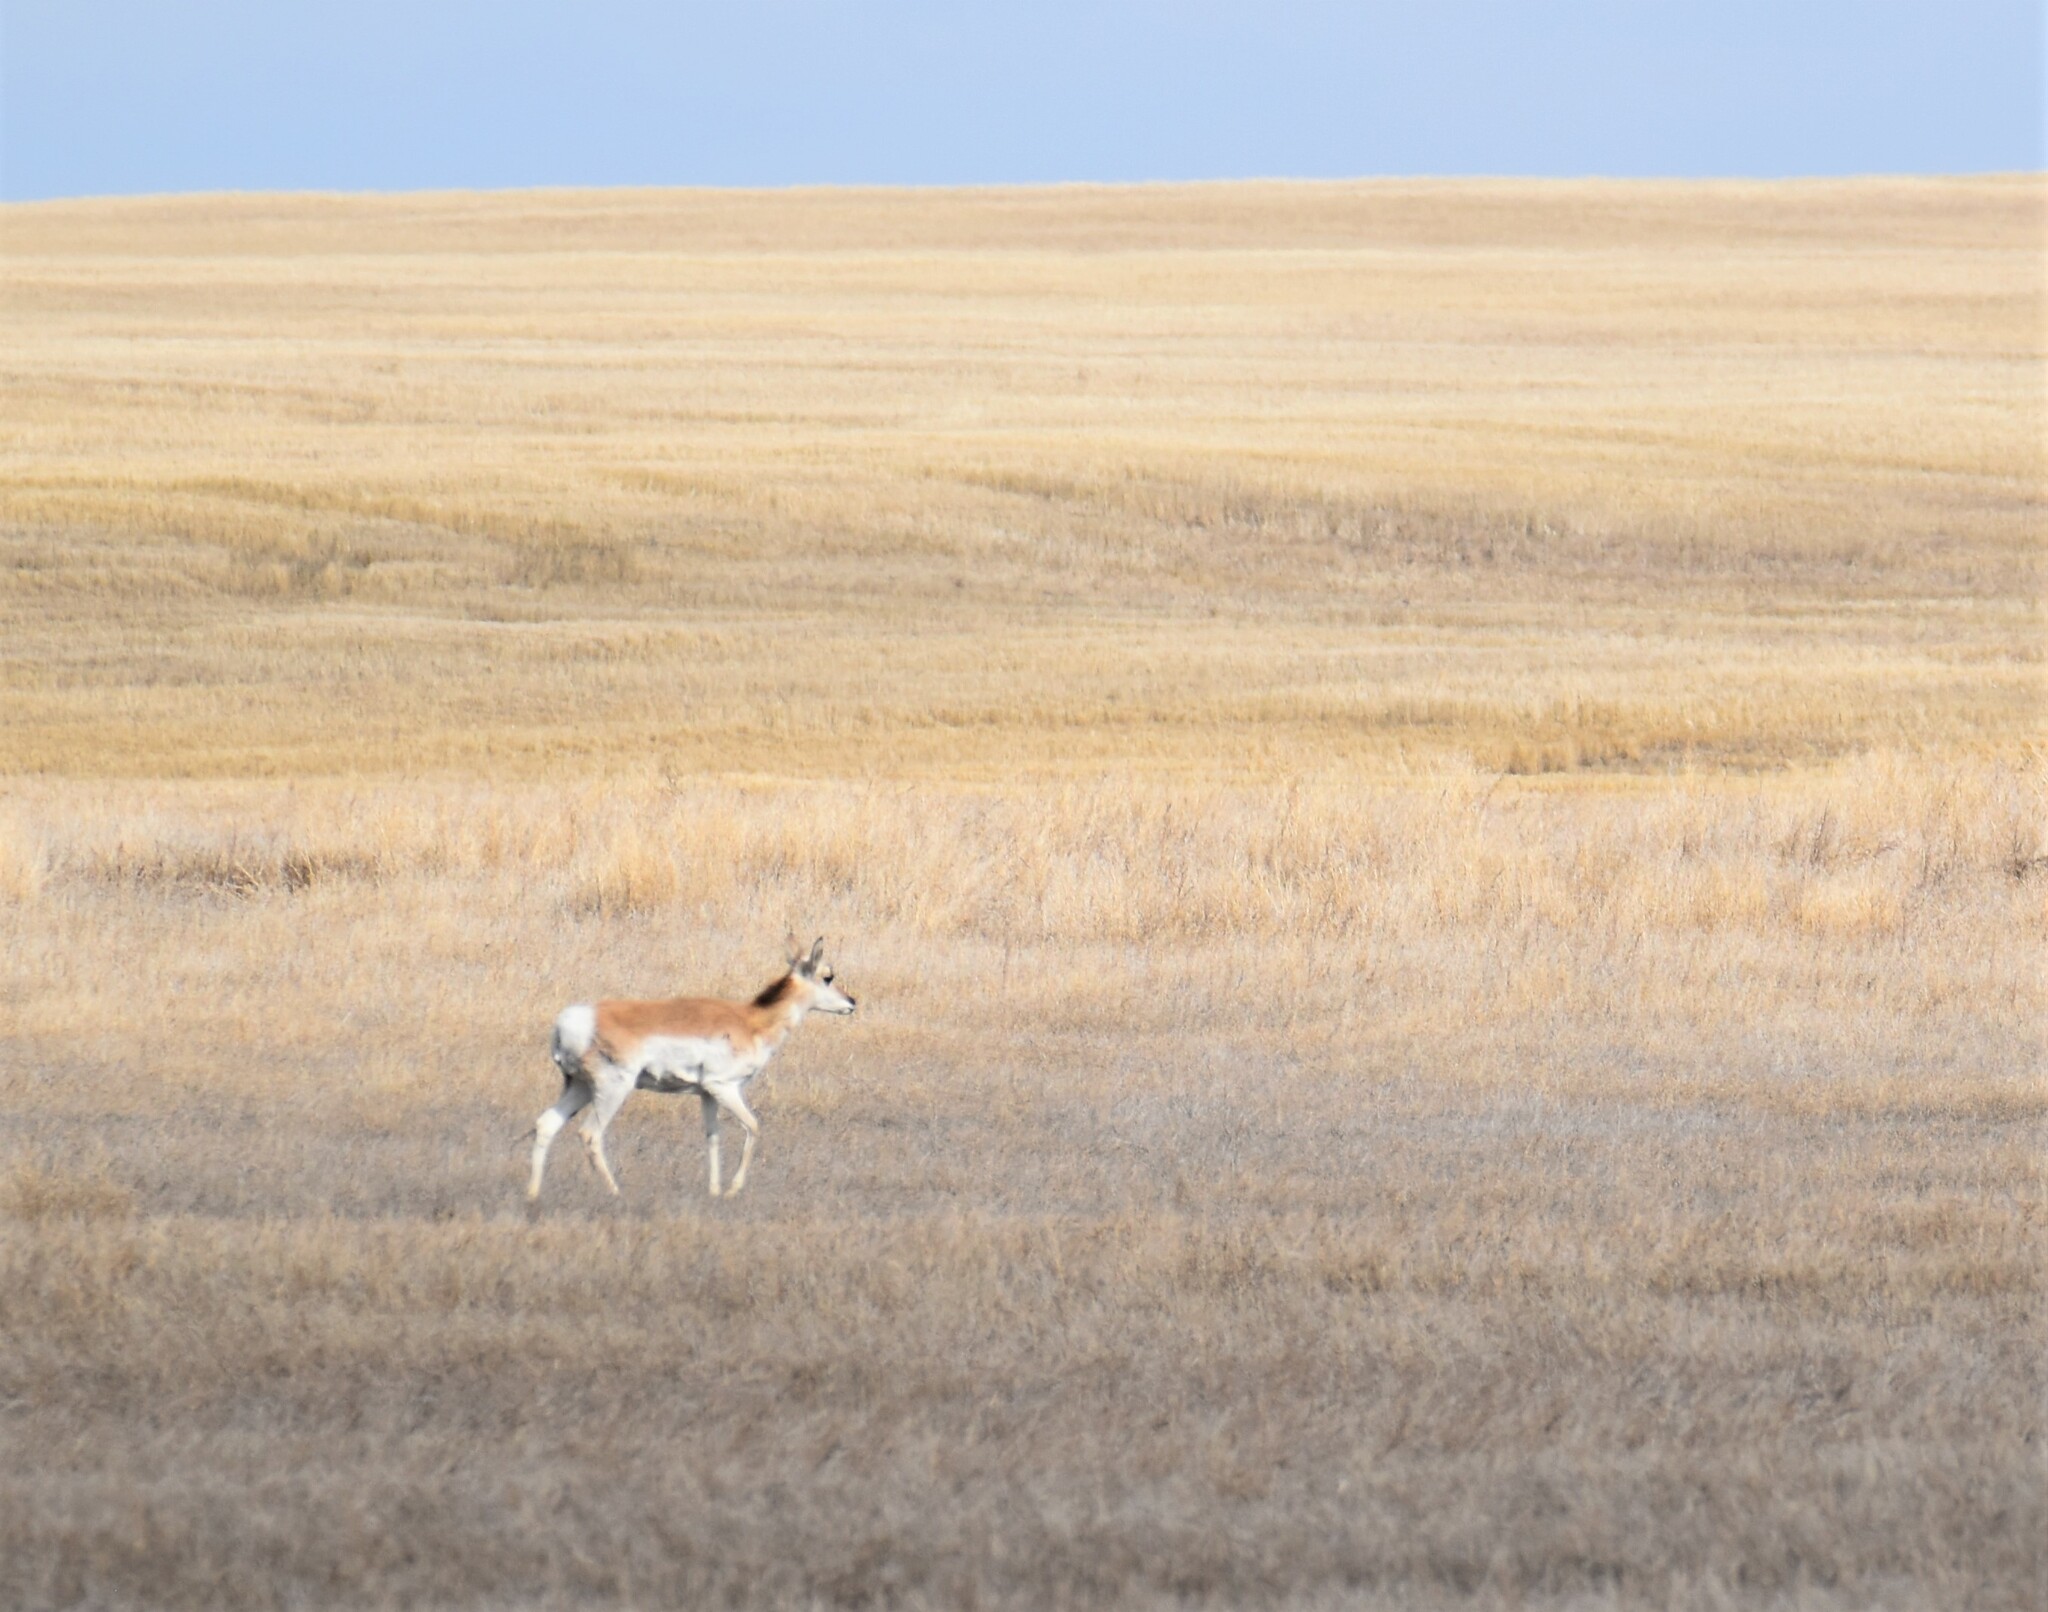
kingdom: Animalia
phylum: Chordata
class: Mammalia
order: Artiodactyla
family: Antilocapridae
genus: Antilocapra
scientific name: Antilocapra americana
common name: Pronghorn
